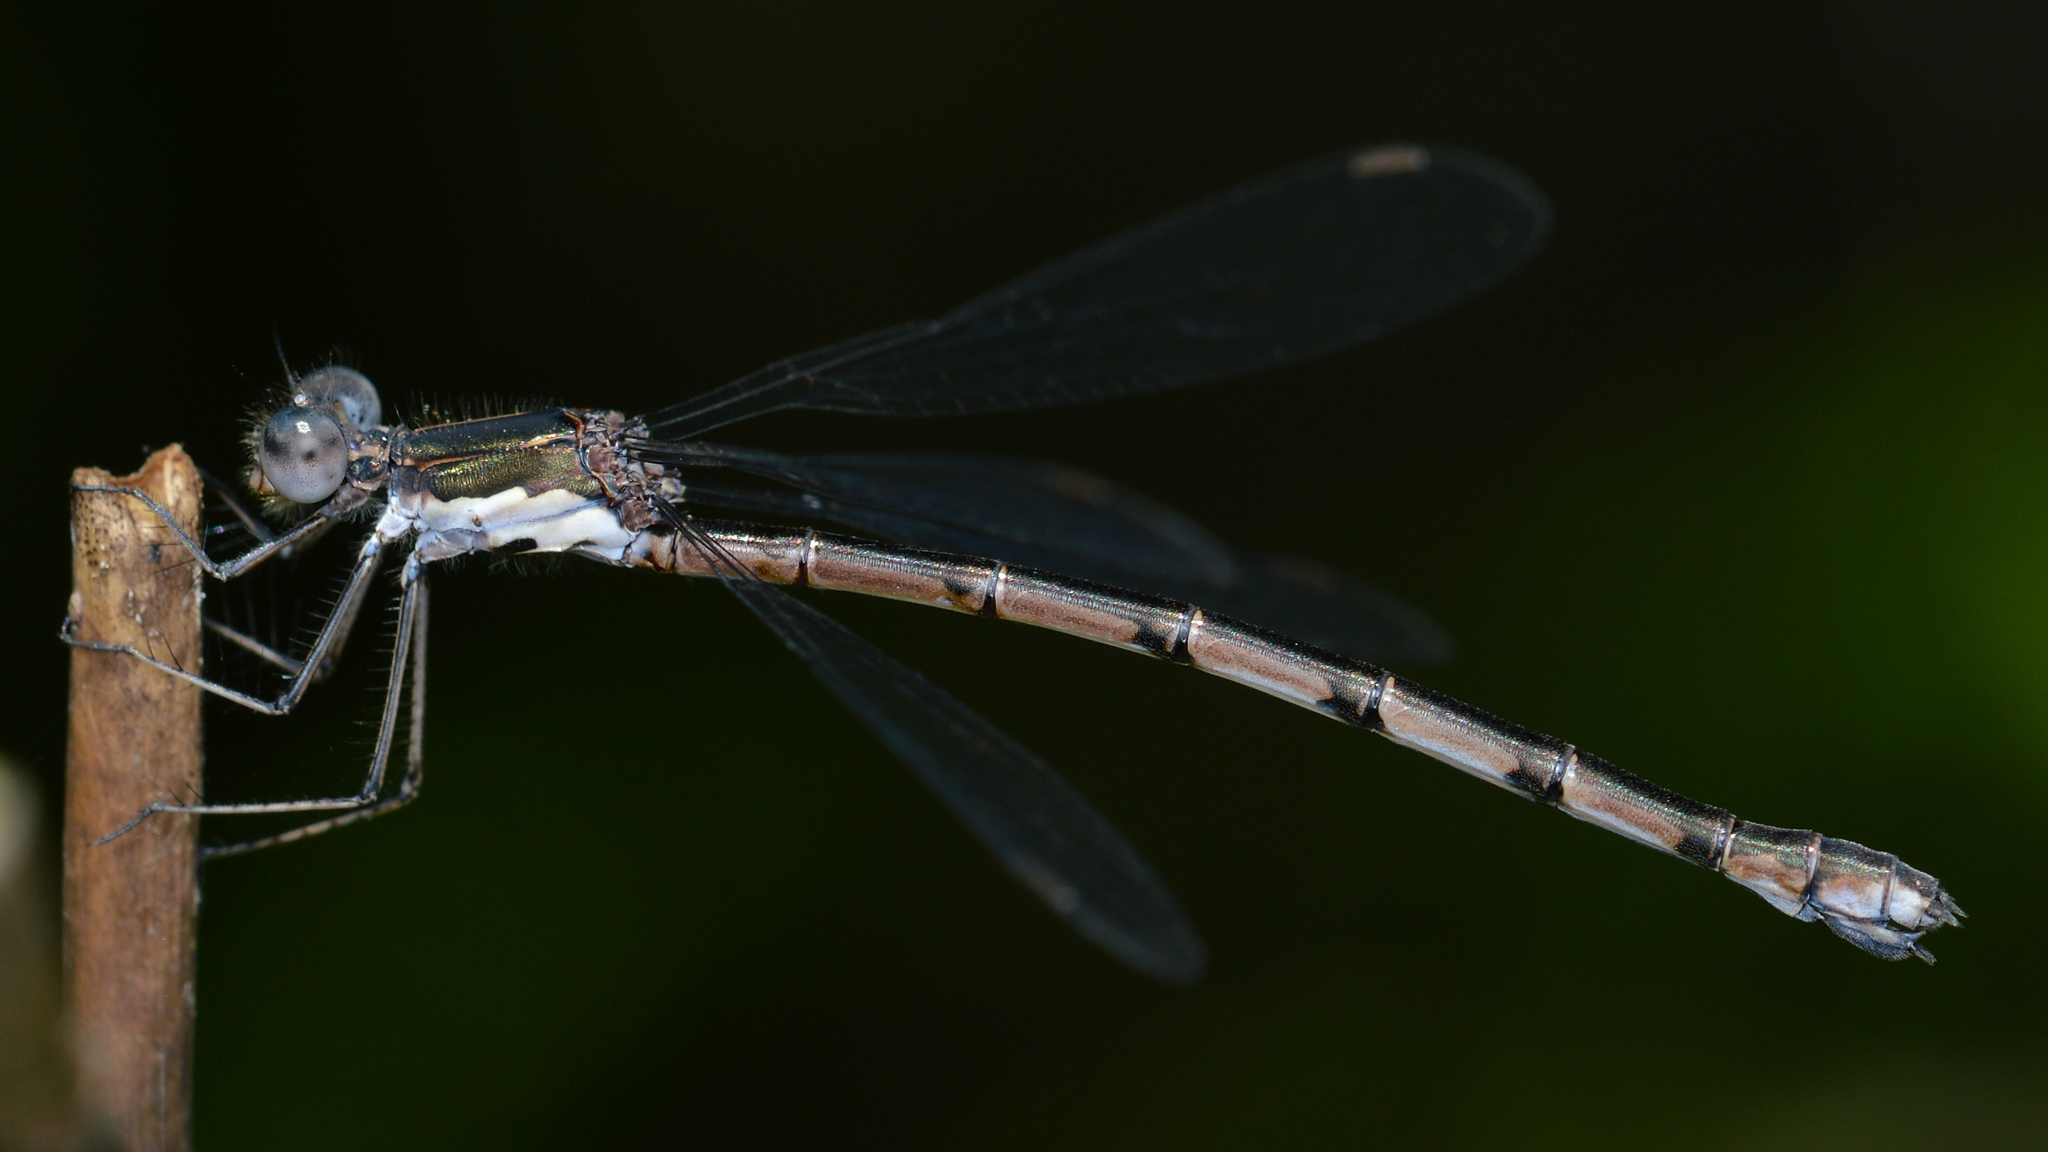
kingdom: Animalia
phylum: Arthropoda
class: Insecta
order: Odonata
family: Lestidae
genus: Lestes
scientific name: Lestes congener
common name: Spotted spreadwing
